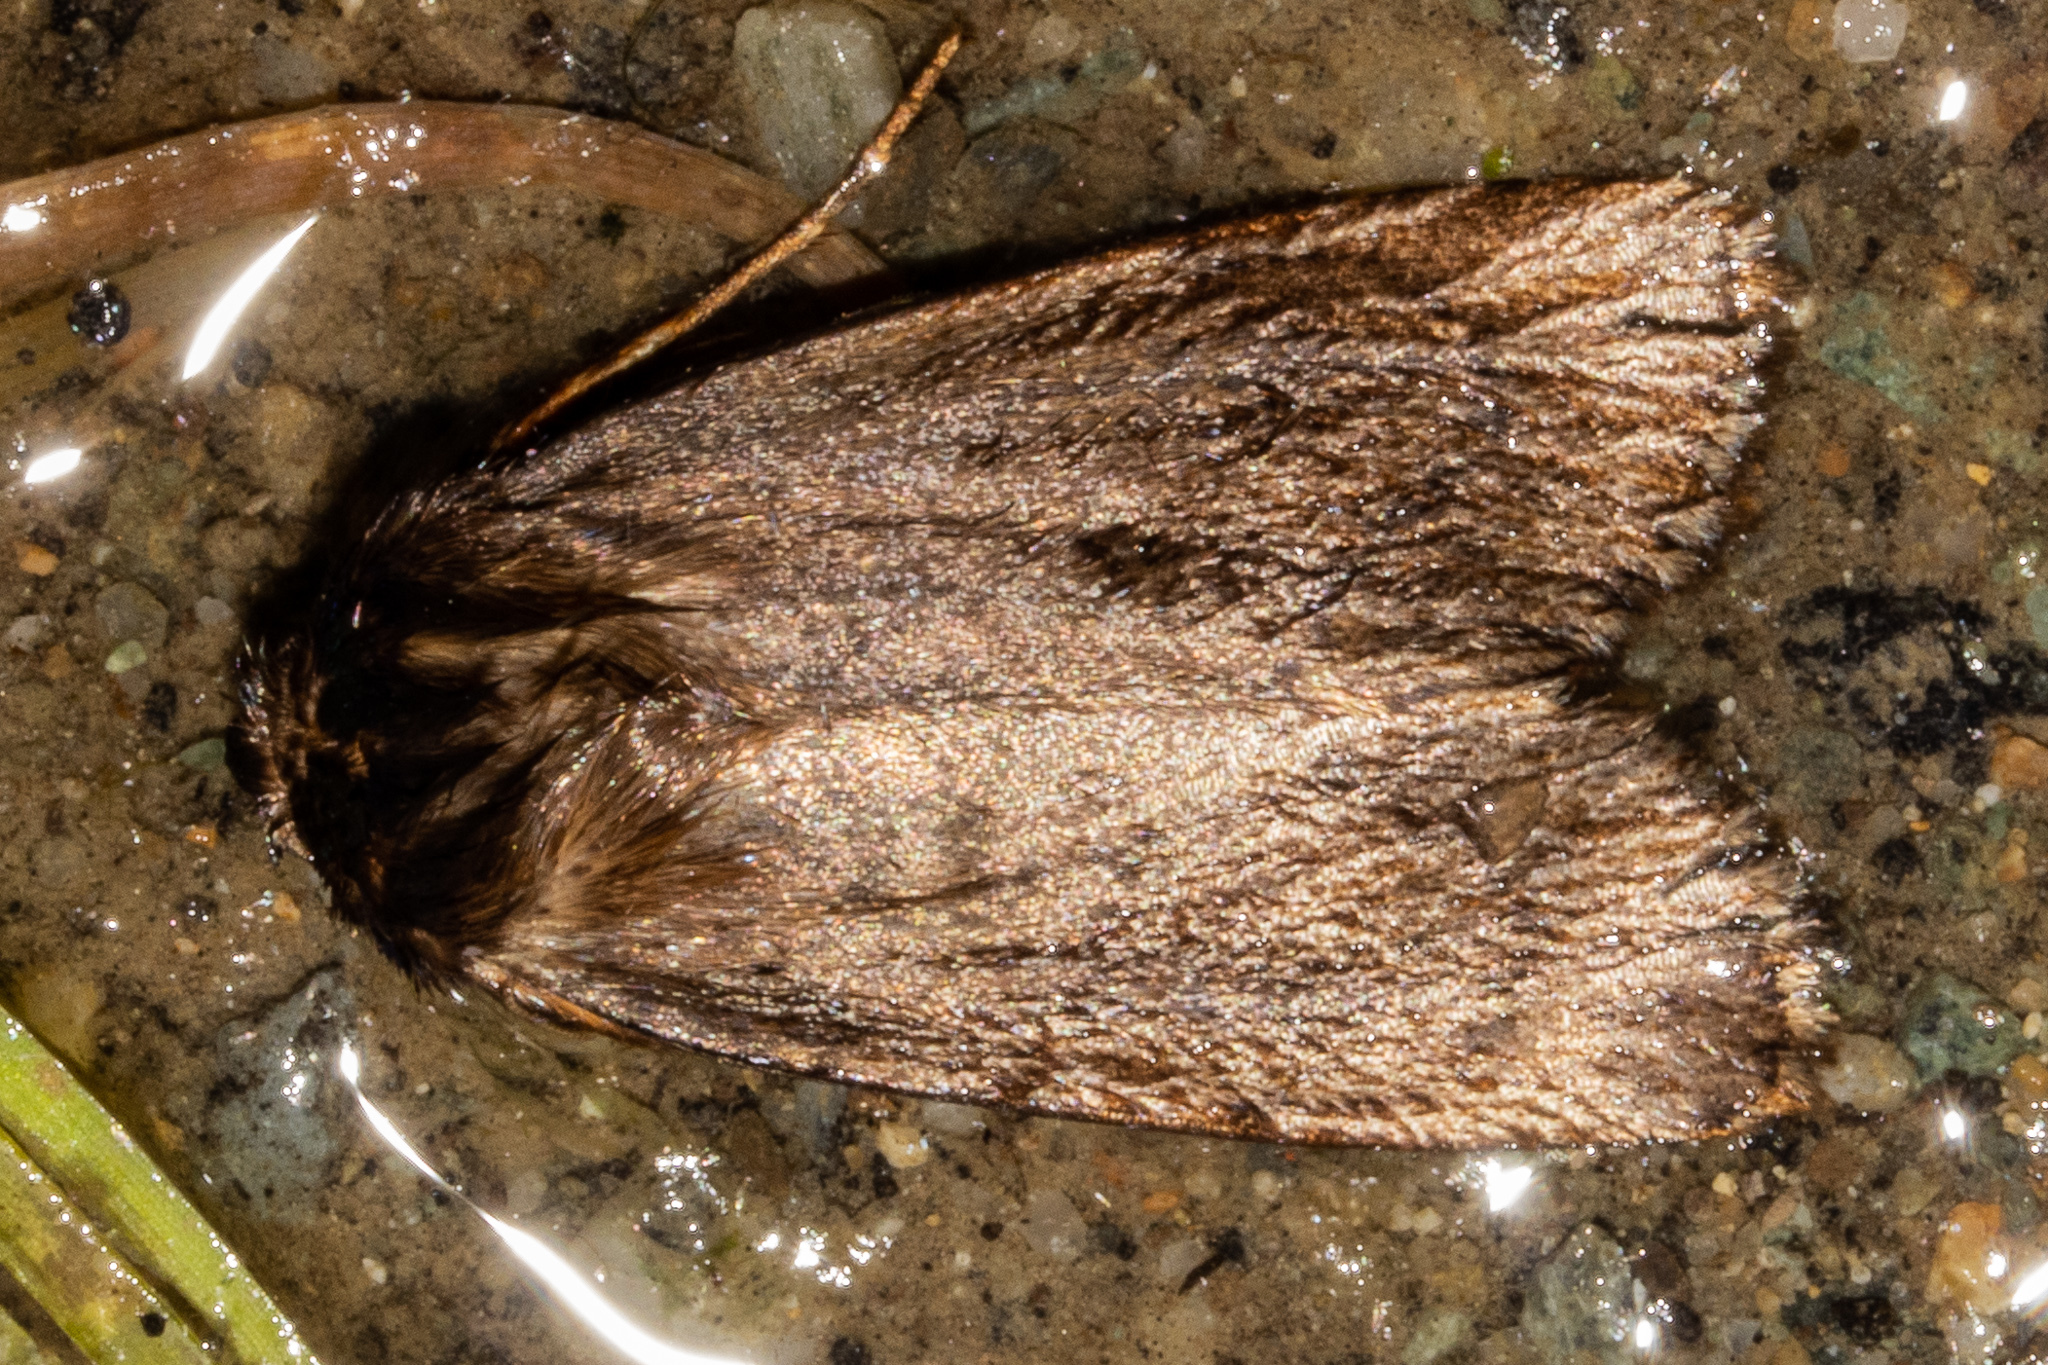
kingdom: Animalia
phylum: Arthropoda
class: Insecta
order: Lepidoptera
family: Noctuidae
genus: Bityla
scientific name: Bityla defigurata
